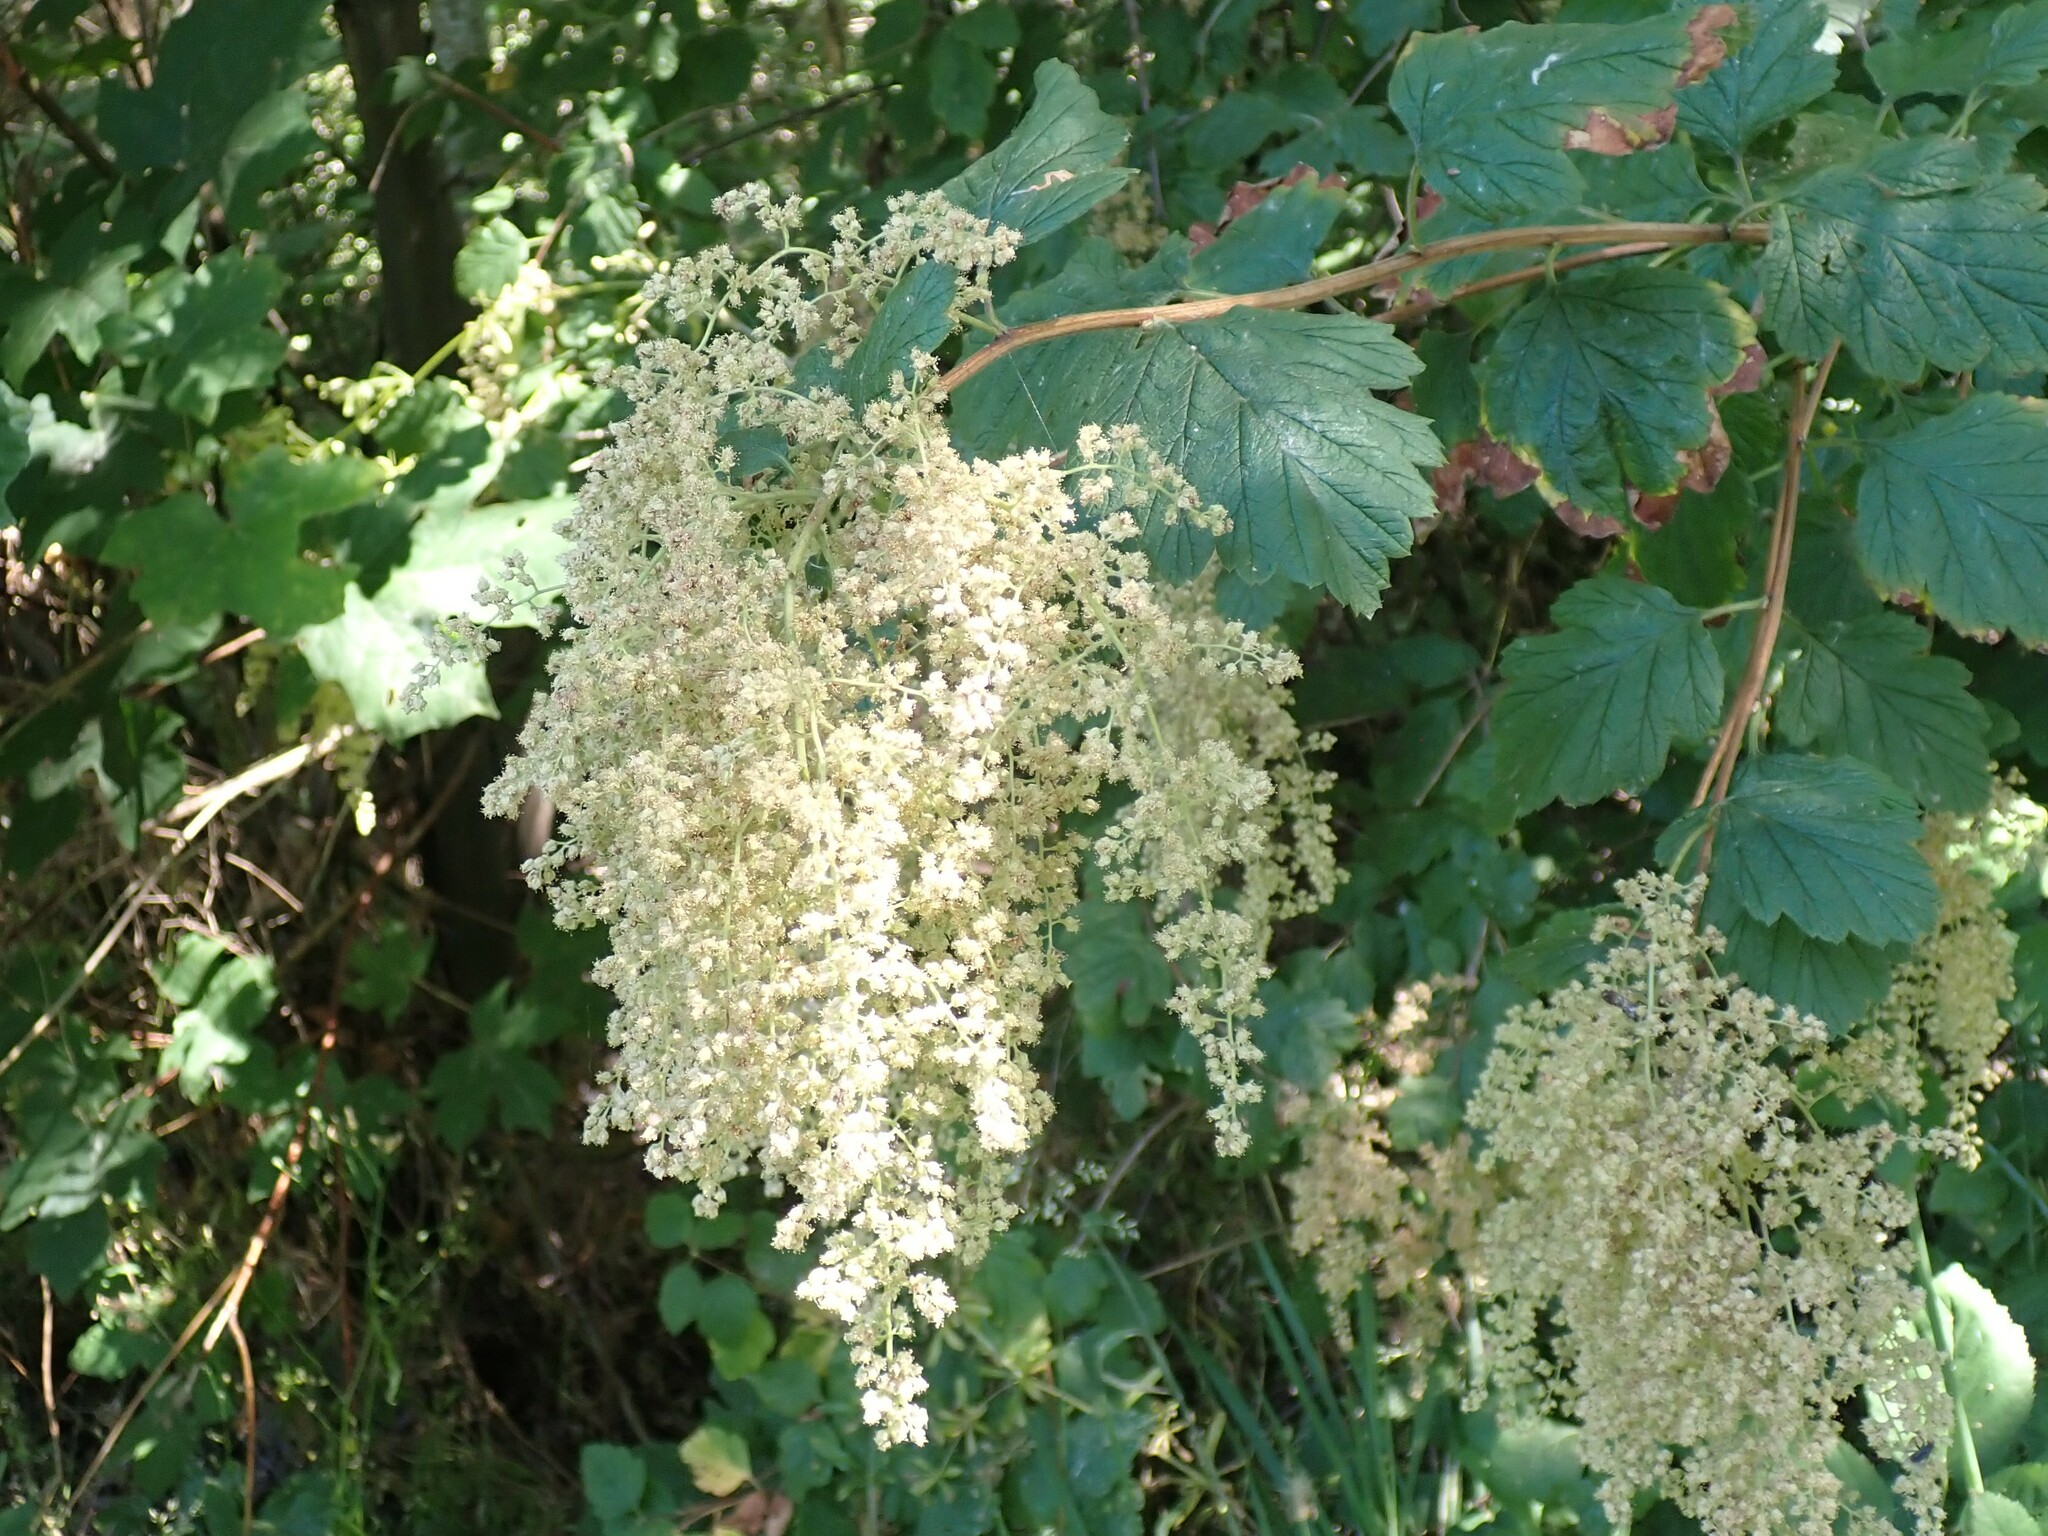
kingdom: Plantae
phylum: Tracheophyta
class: Magnoliopsida
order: Rosales
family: Rosaceae
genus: Holodiscus
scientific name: Holodiscus discolor
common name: Oceanspray
